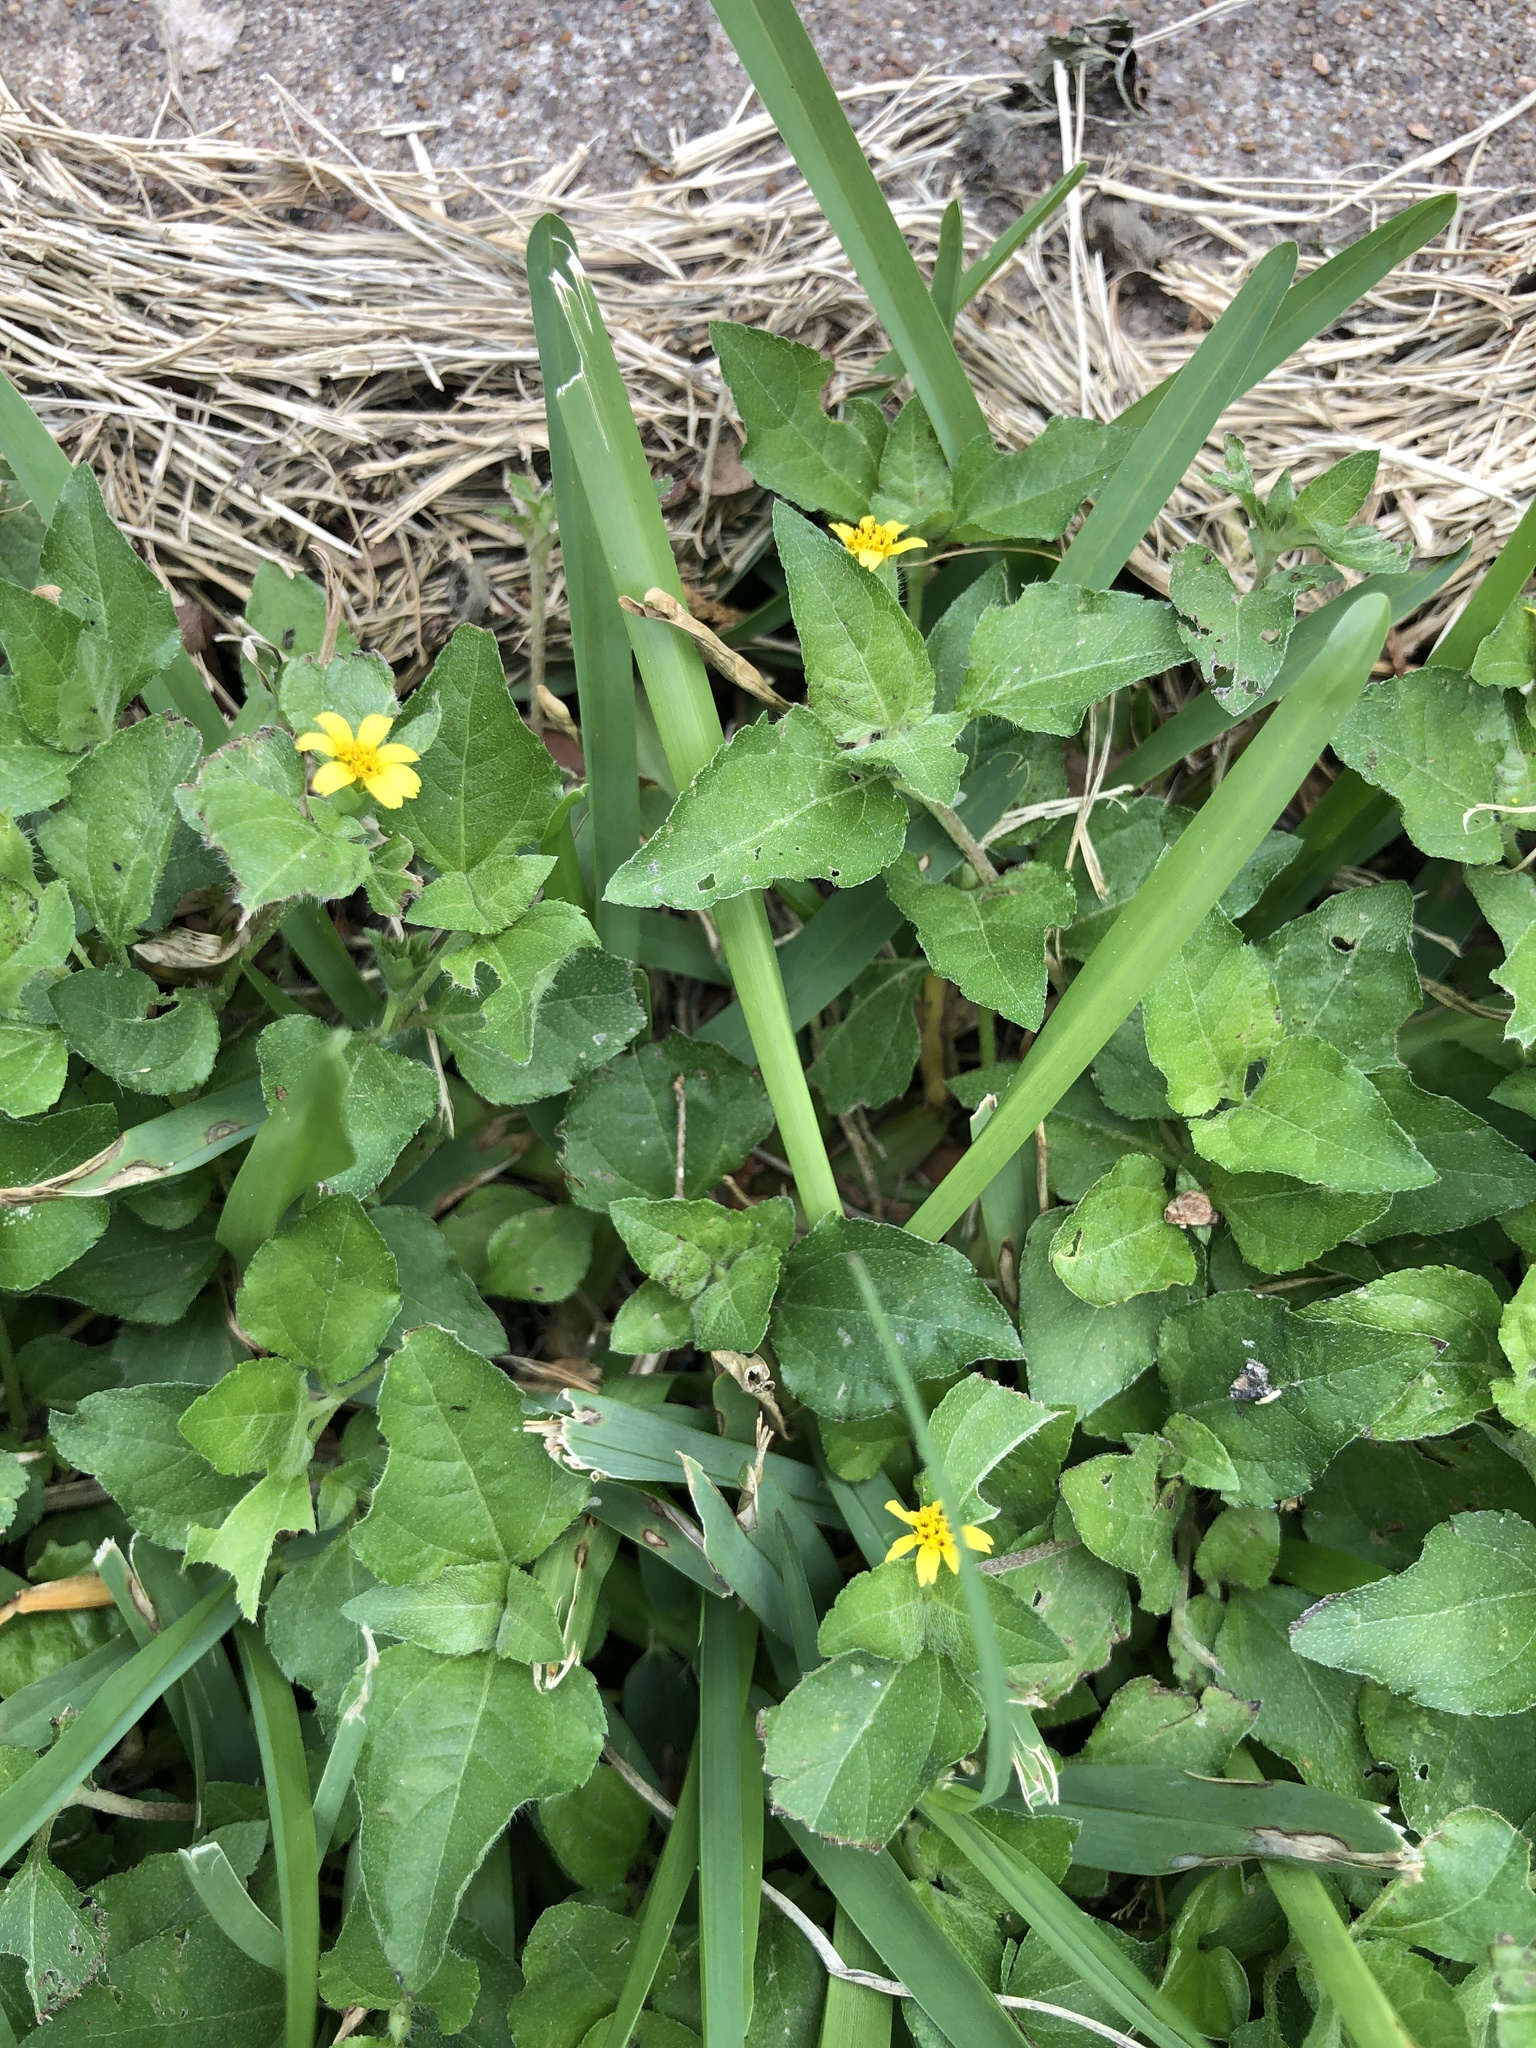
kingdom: Plantae
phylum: Tracheophyta
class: Magnoliopsida
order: Asterales
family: Asteraceae
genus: Calyptocarpus
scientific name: Calyptocarpus vialis
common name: Straggler daisy
